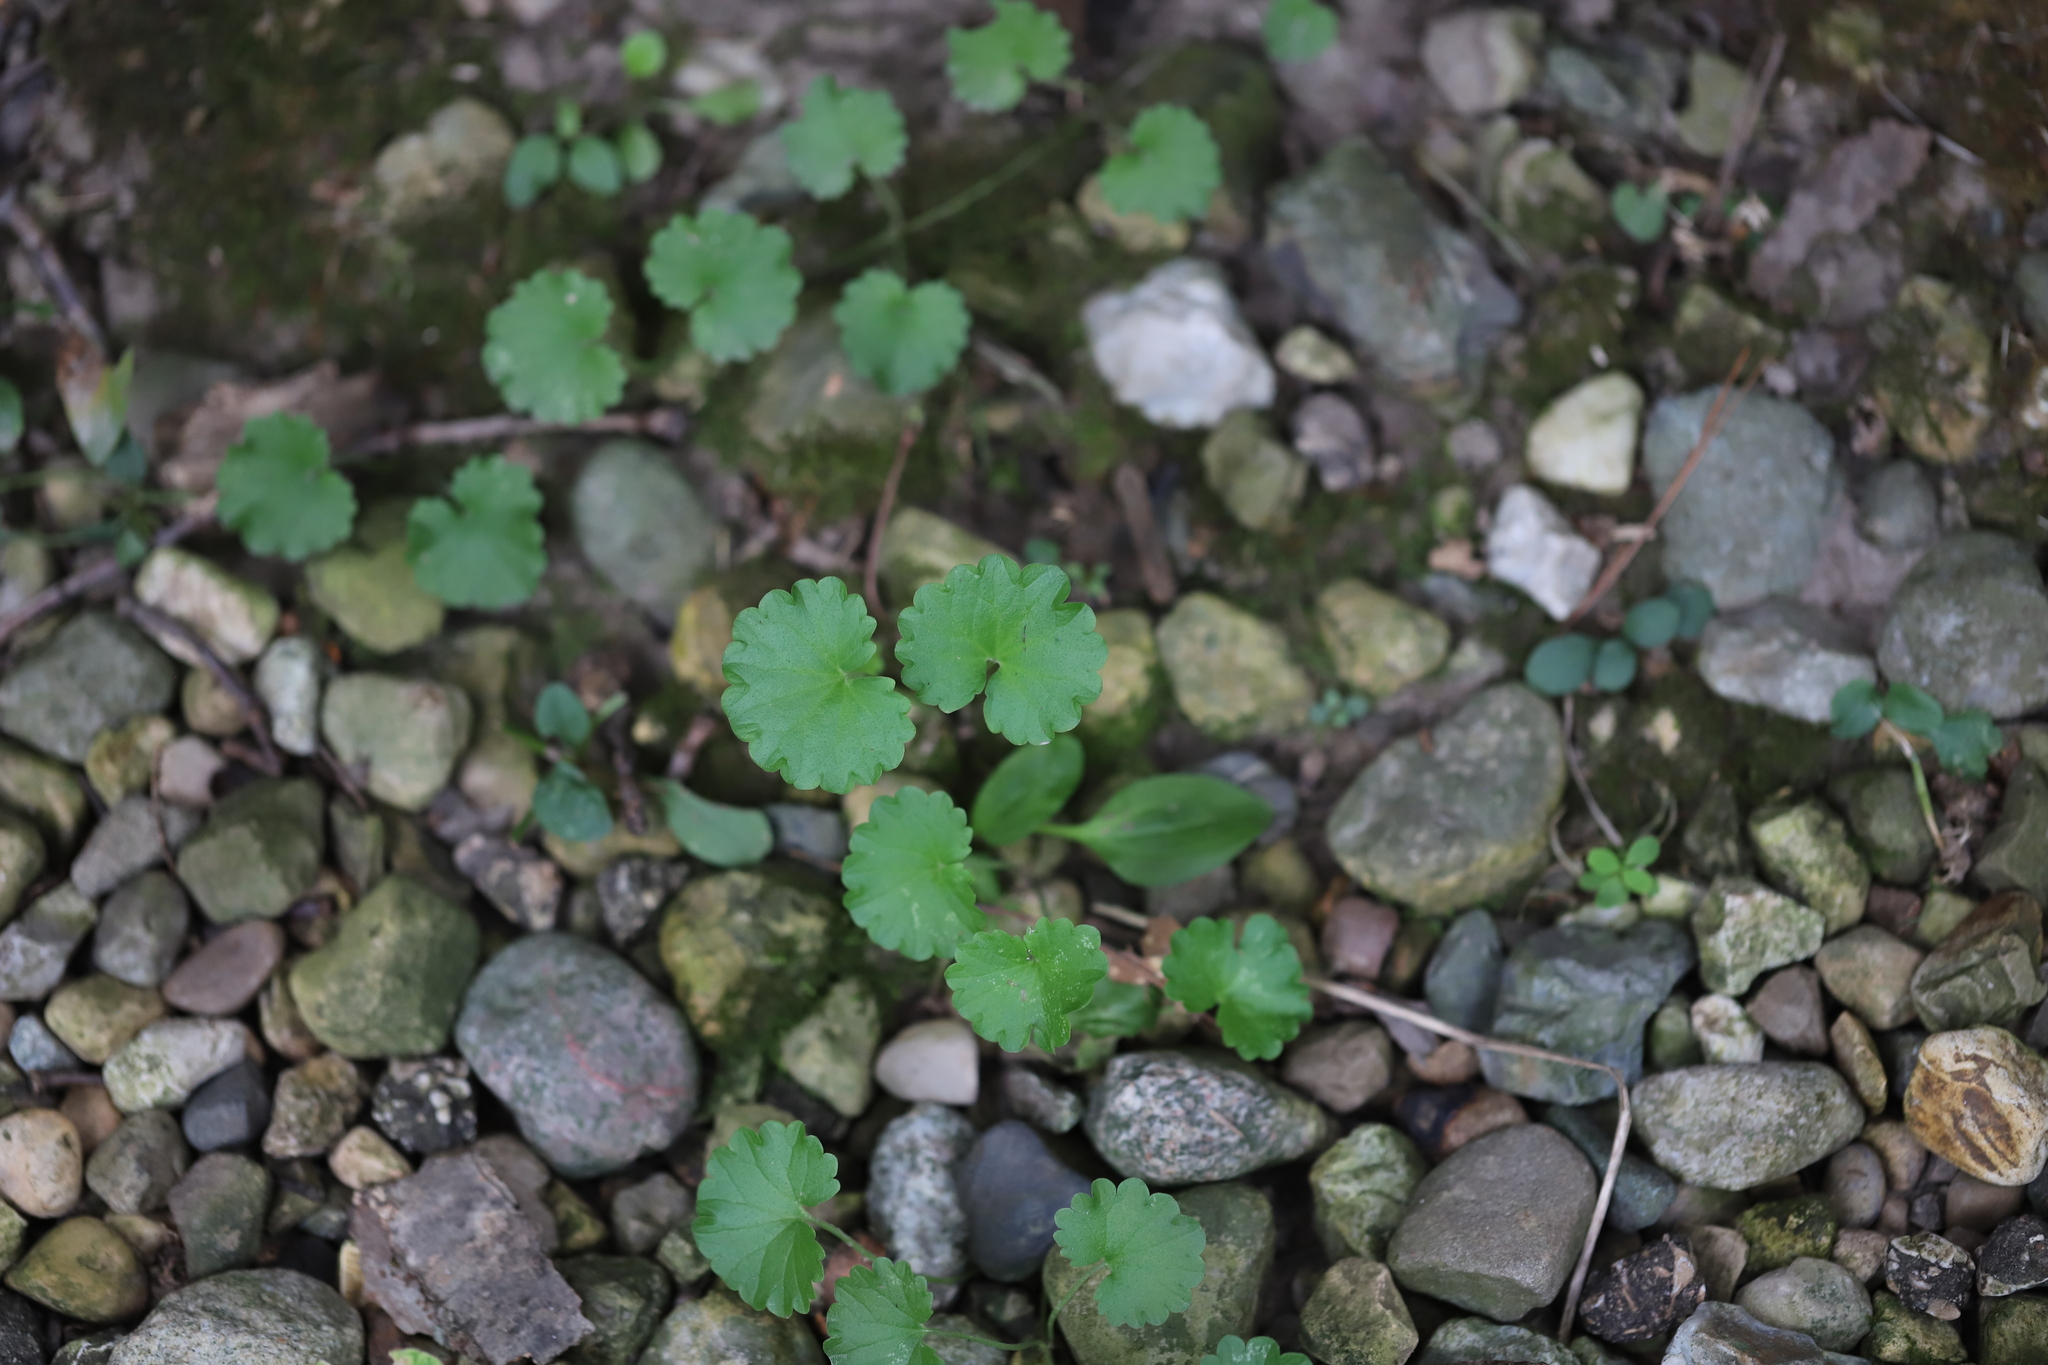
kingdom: Plantae
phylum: Tracheophyta
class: Magnoliopsida
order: Lamiales
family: Lamiaceae
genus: Glechoma
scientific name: Glechoma hederacea
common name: Ground ivy
